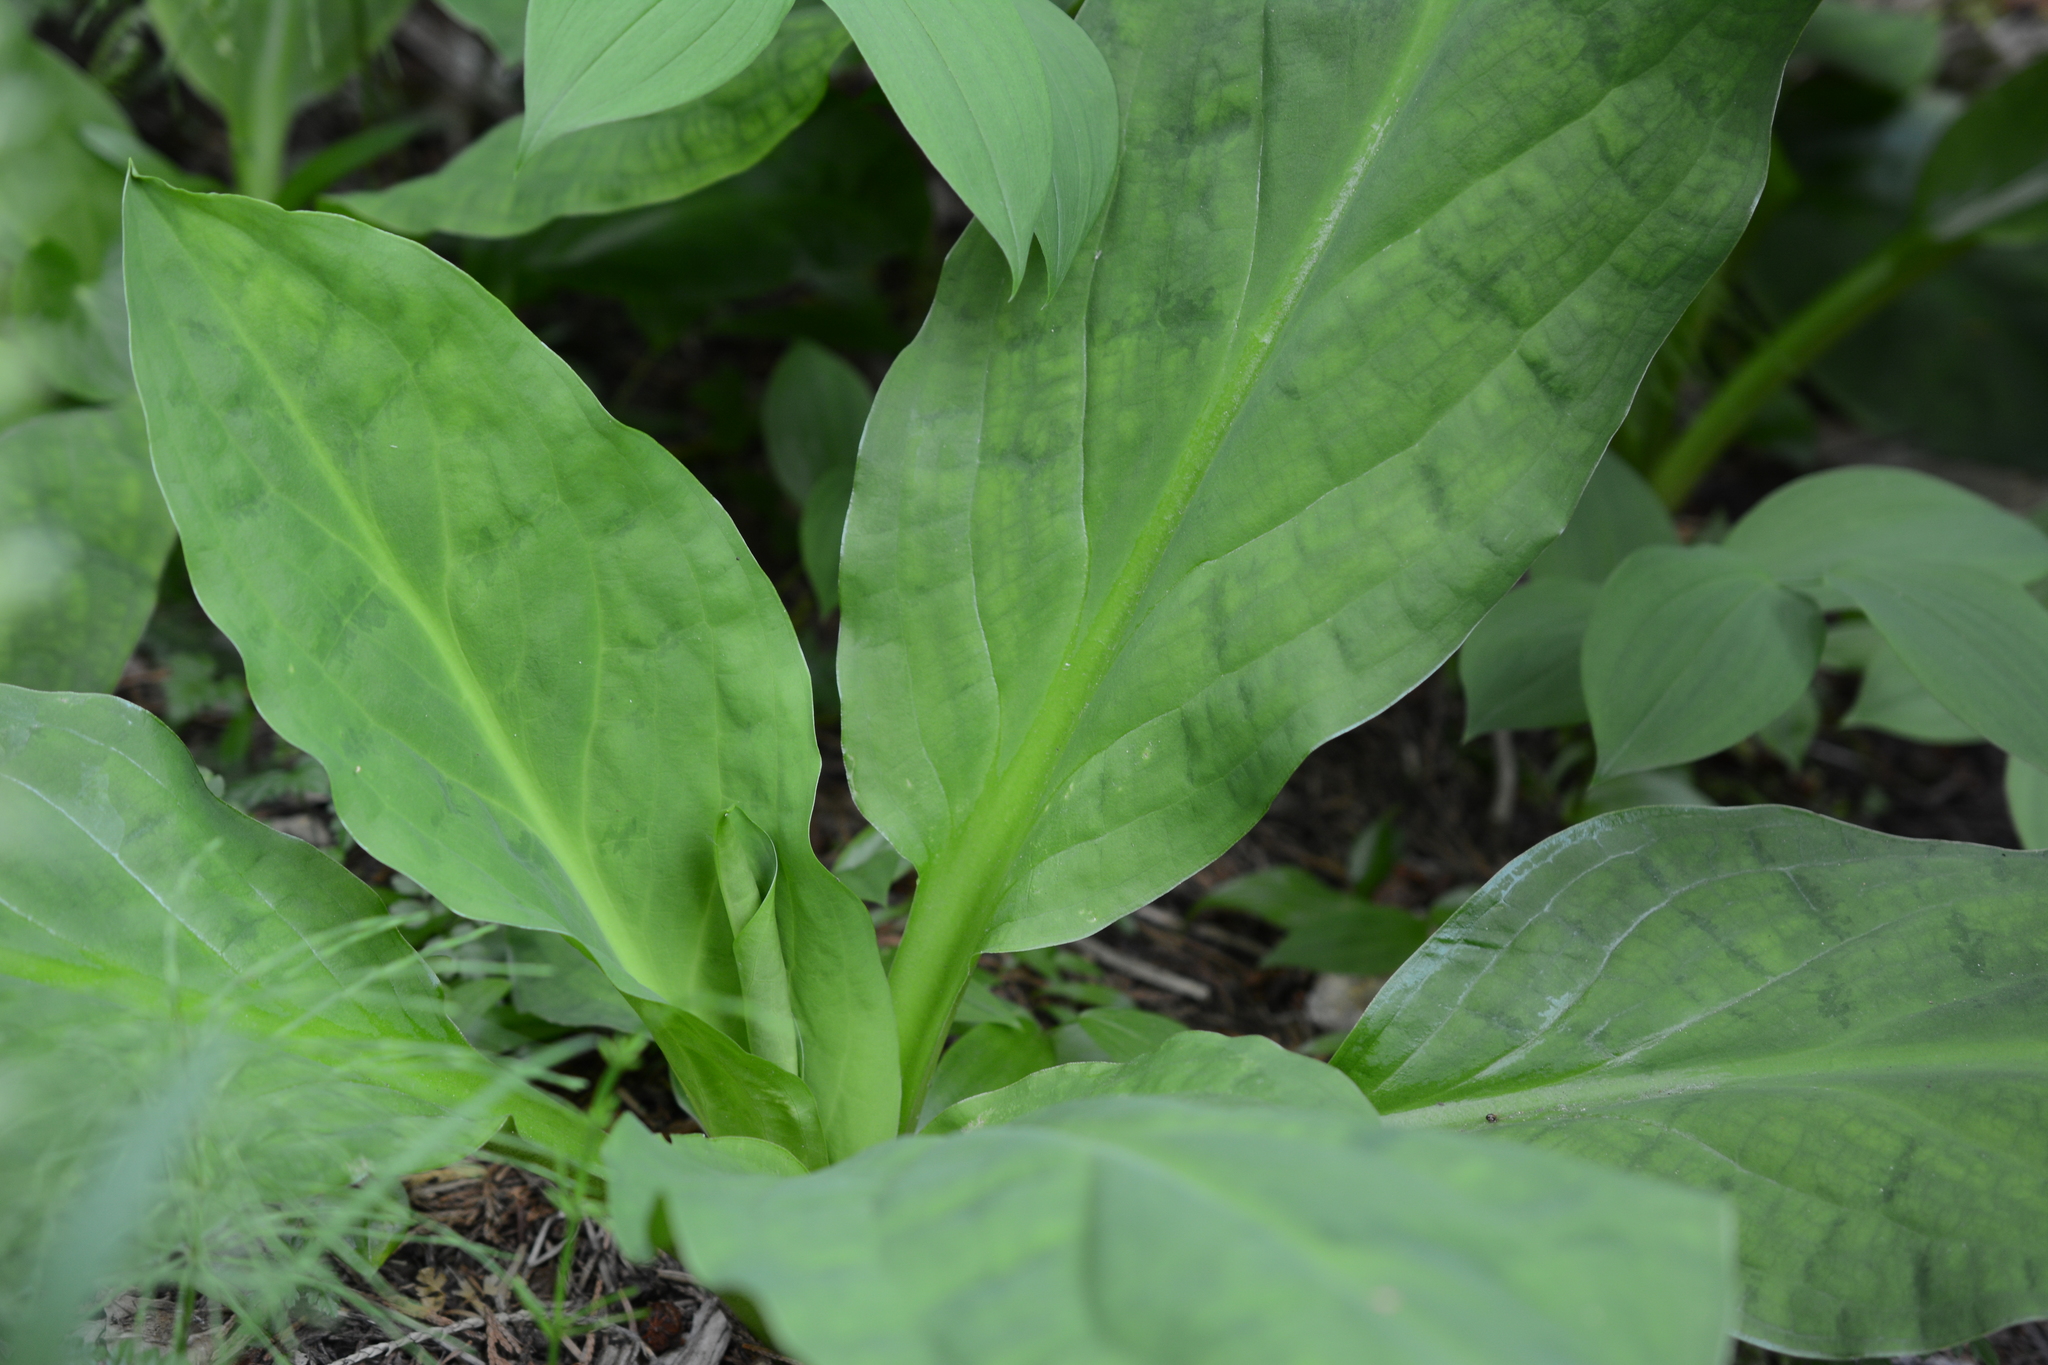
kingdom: Plantae
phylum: Tracheophyta
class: Liliopsida
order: Alismatales
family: Araceae
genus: Lysichiton
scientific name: Lysichiton americanus
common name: American skunk cabbage
